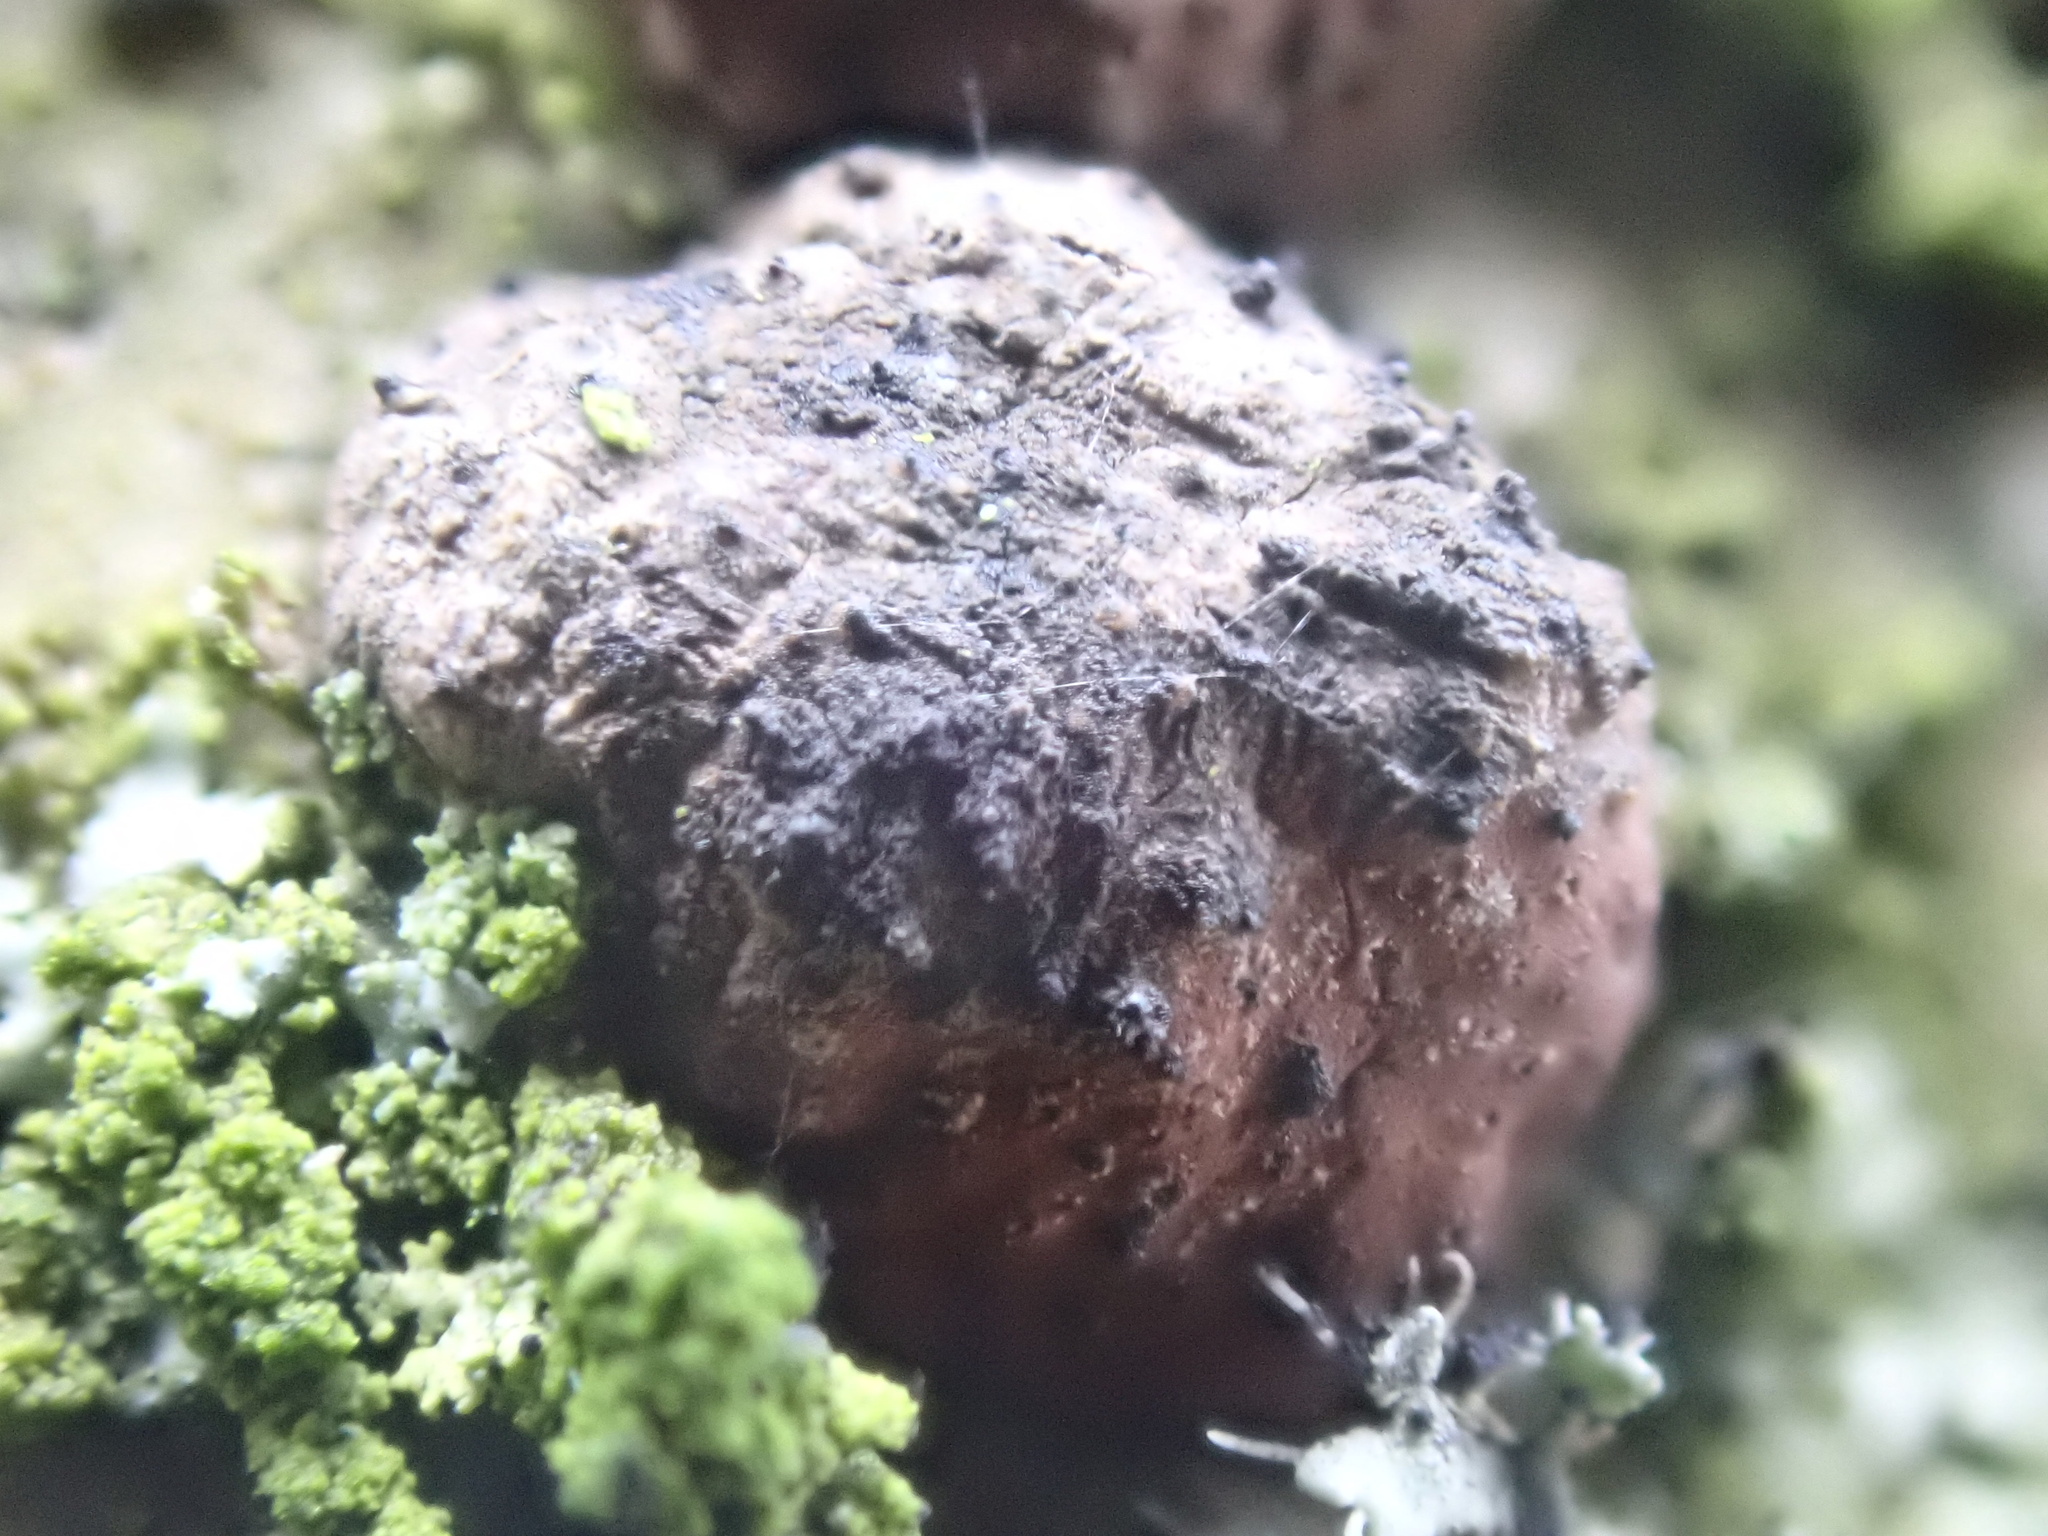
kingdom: Fungi
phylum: Ascomycota
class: Sordariomycetes
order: Xylariales
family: Hypoxylaceae
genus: Hypoxylon
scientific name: Hypoxylon fragiforme
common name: Beech woodwart
